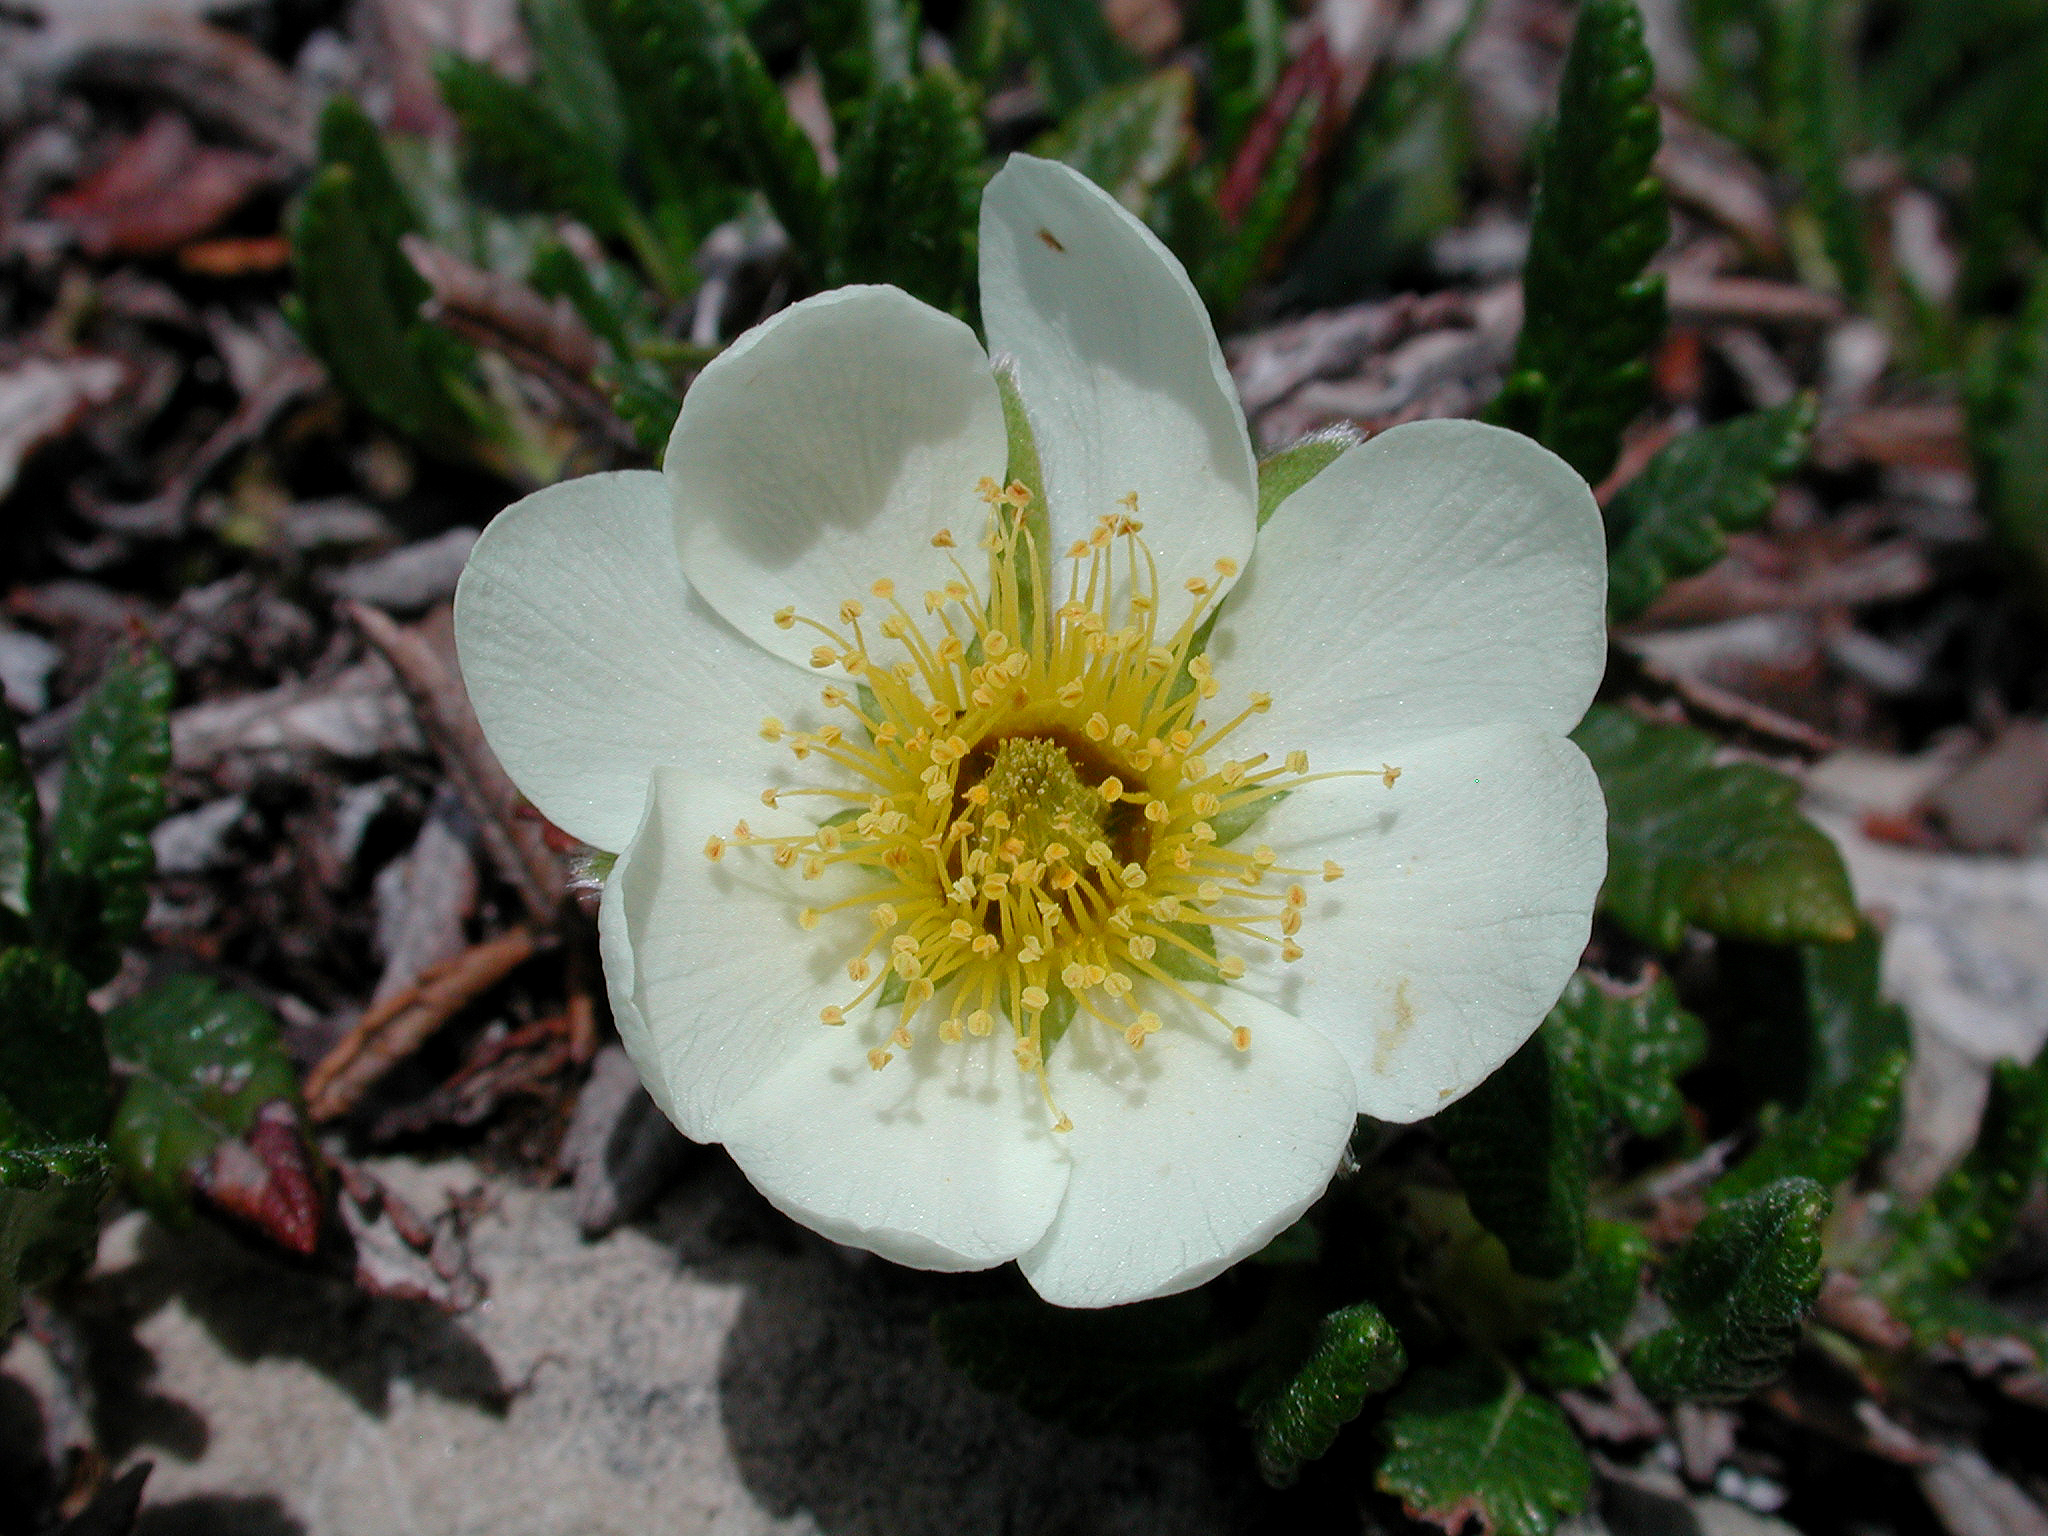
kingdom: Plantae
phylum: Tracheophyta
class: Magnoliopsida
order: Rosales
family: Rosaceae
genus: Dryas
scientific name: Dryas octopetala
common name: Eight-petal mountain-avens
